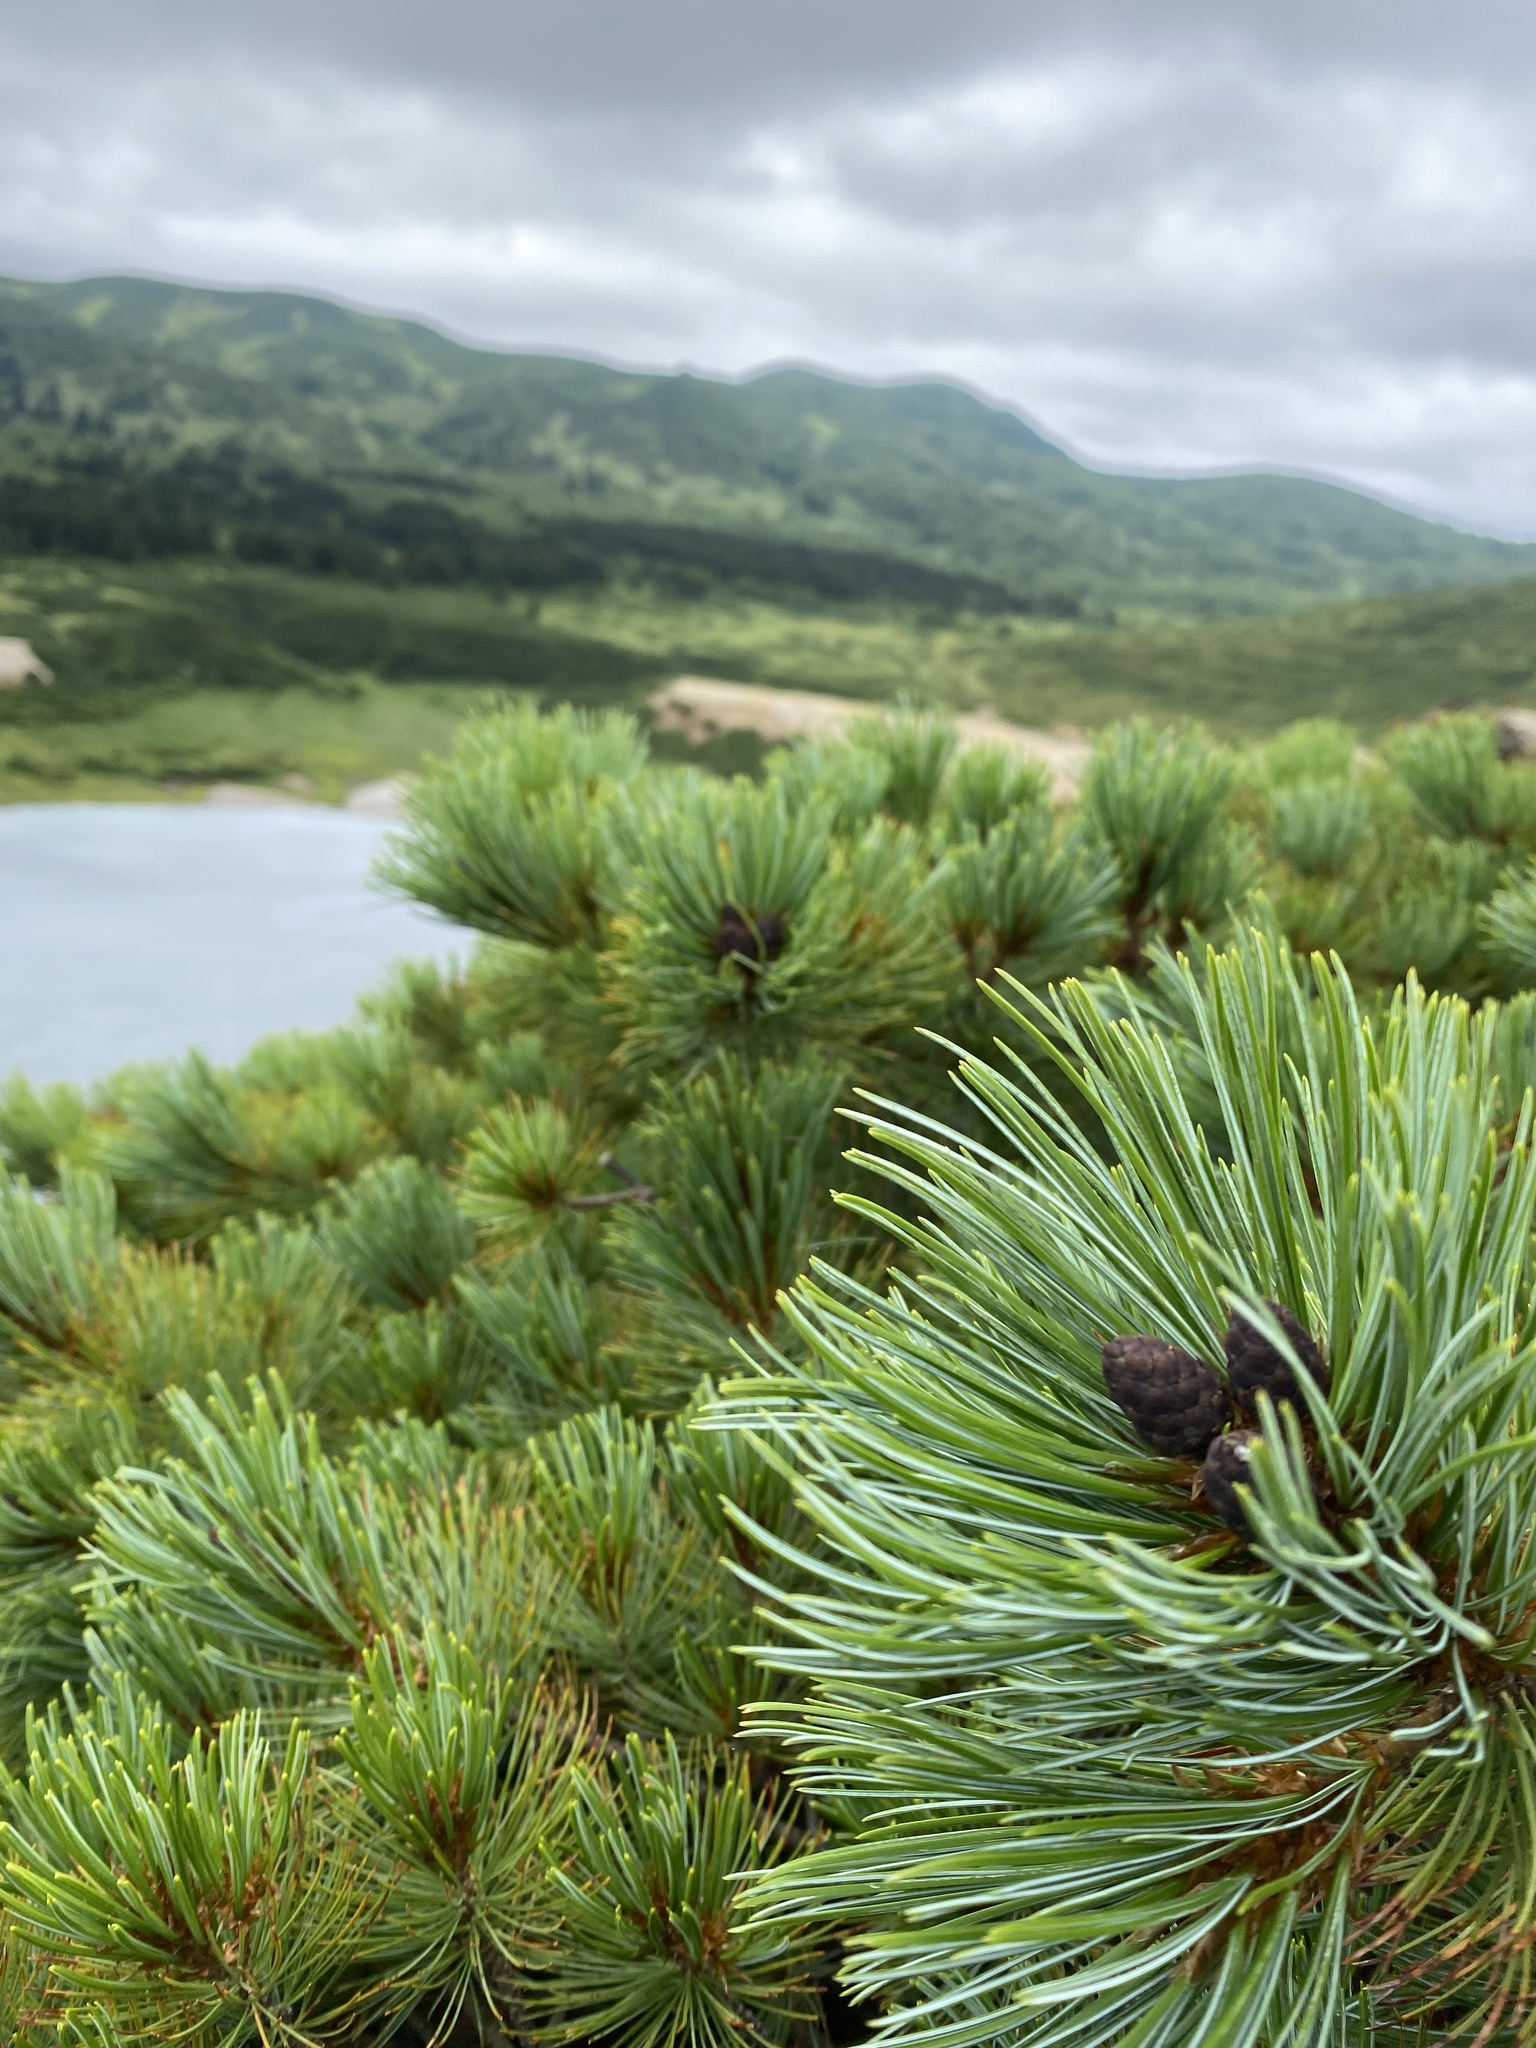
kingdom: Plantae
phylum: Tracheophyta
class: Pinopsida
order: Pinales
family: Pinaceae
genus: Pinus
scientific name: Pinus pumila
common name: Dwarf siberian pine
